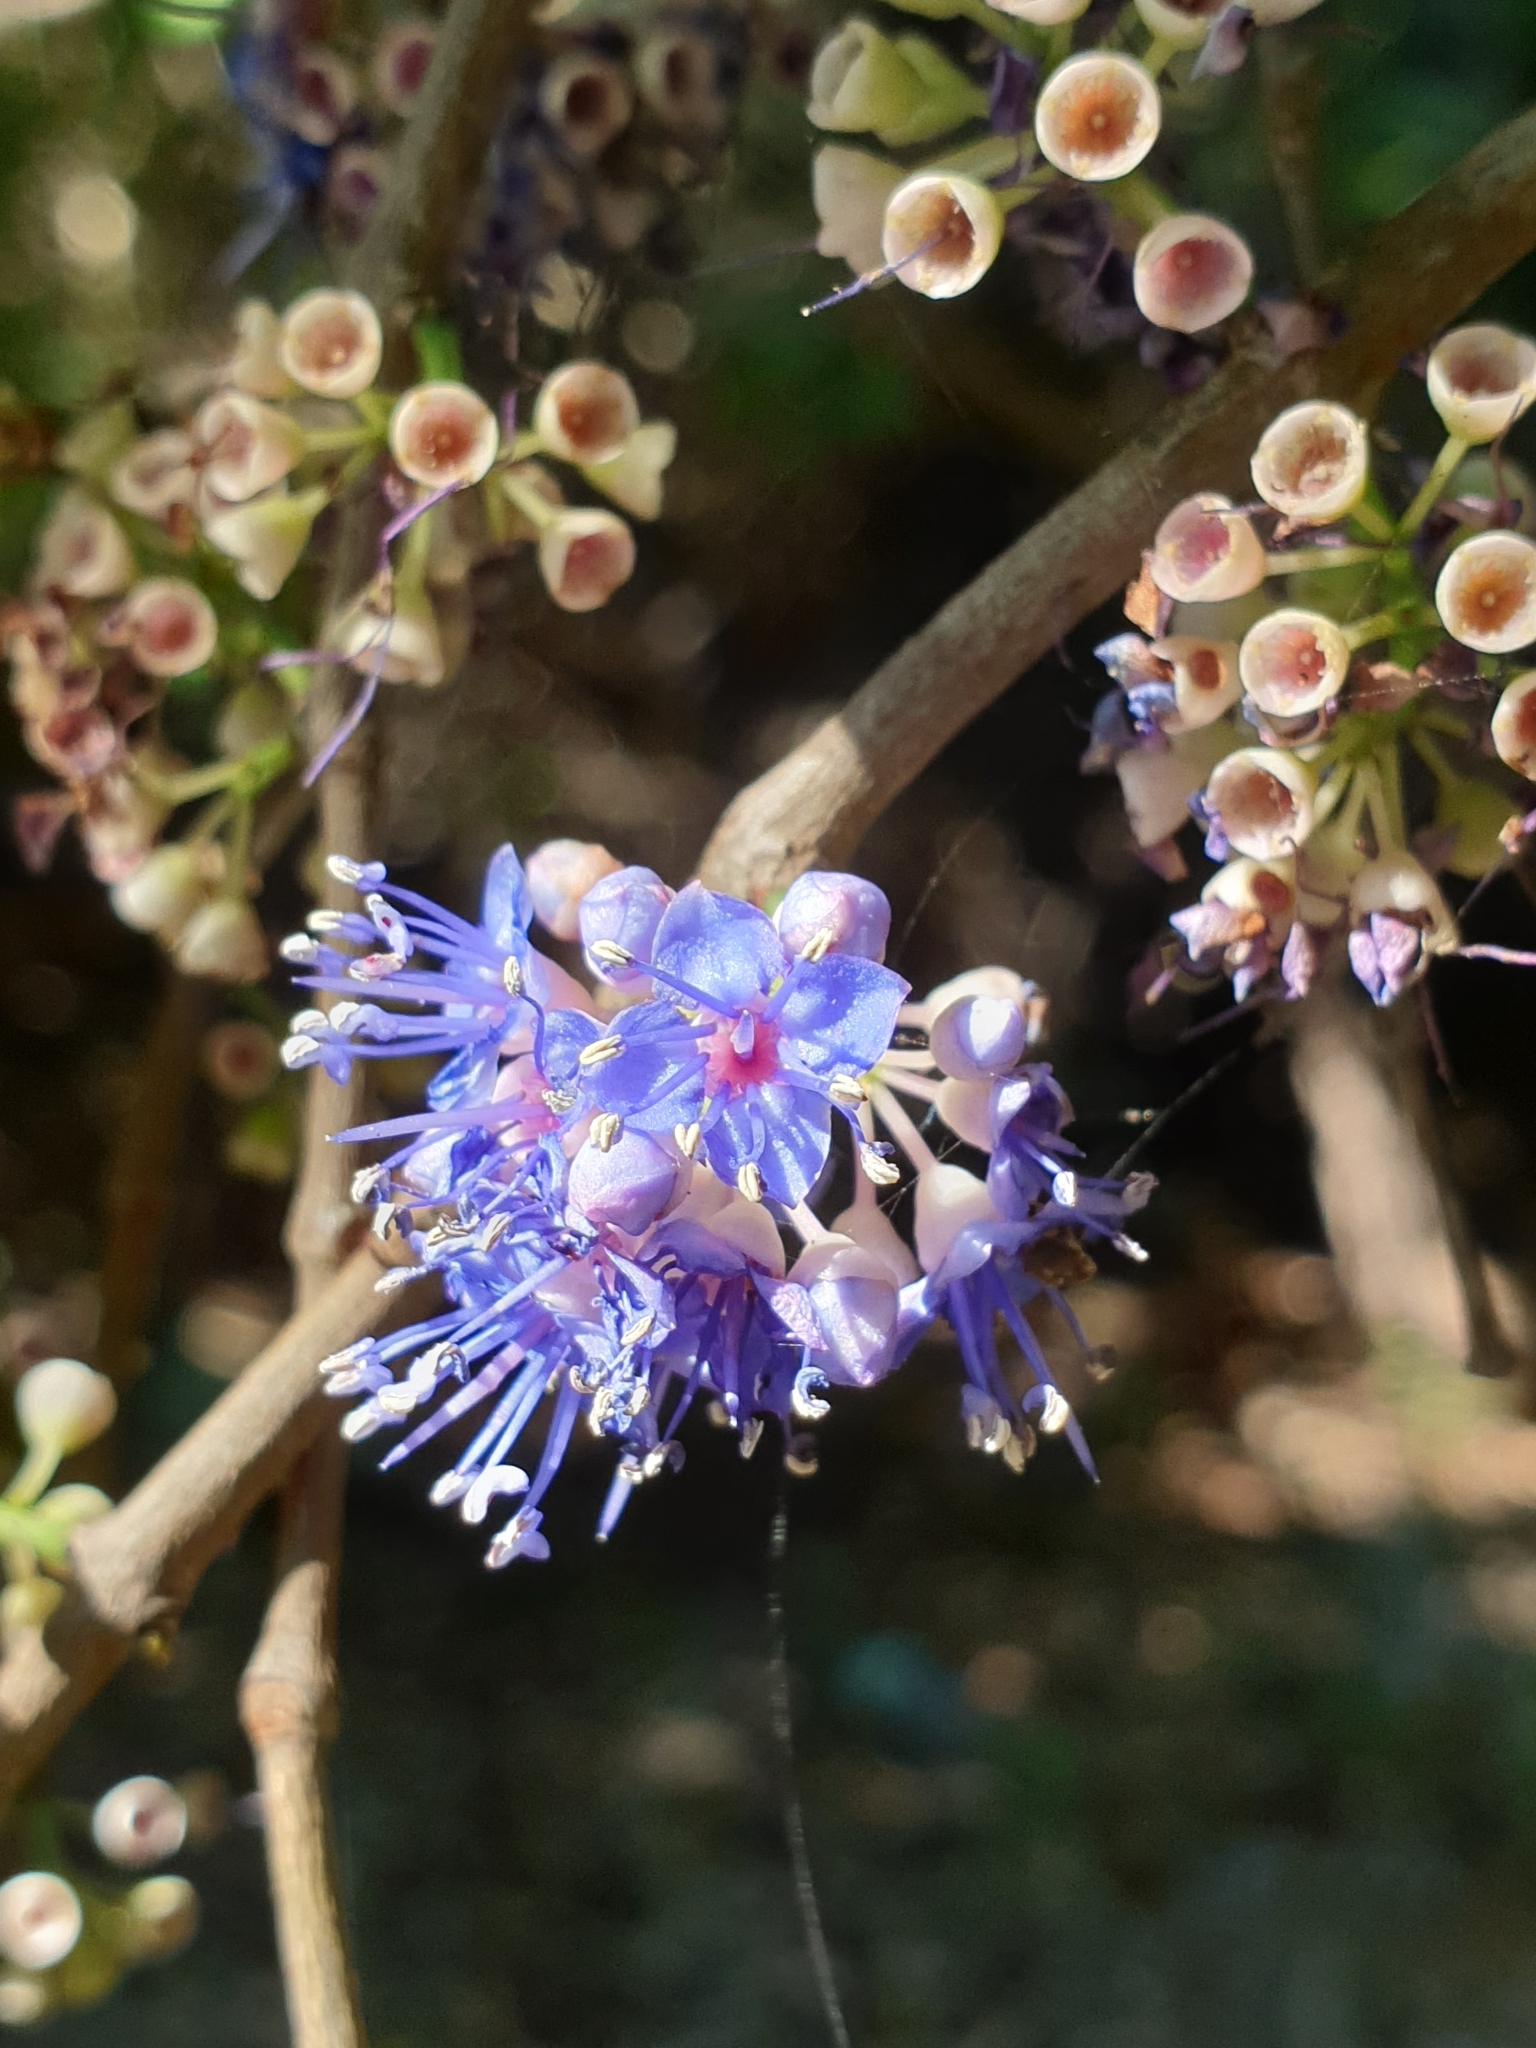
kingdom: Plantae
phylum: Tracheophyta
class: Magnoliopsida
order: Myrtales
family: Melastomataceae
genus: Memecylon
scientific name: Memecylon umbellatum
